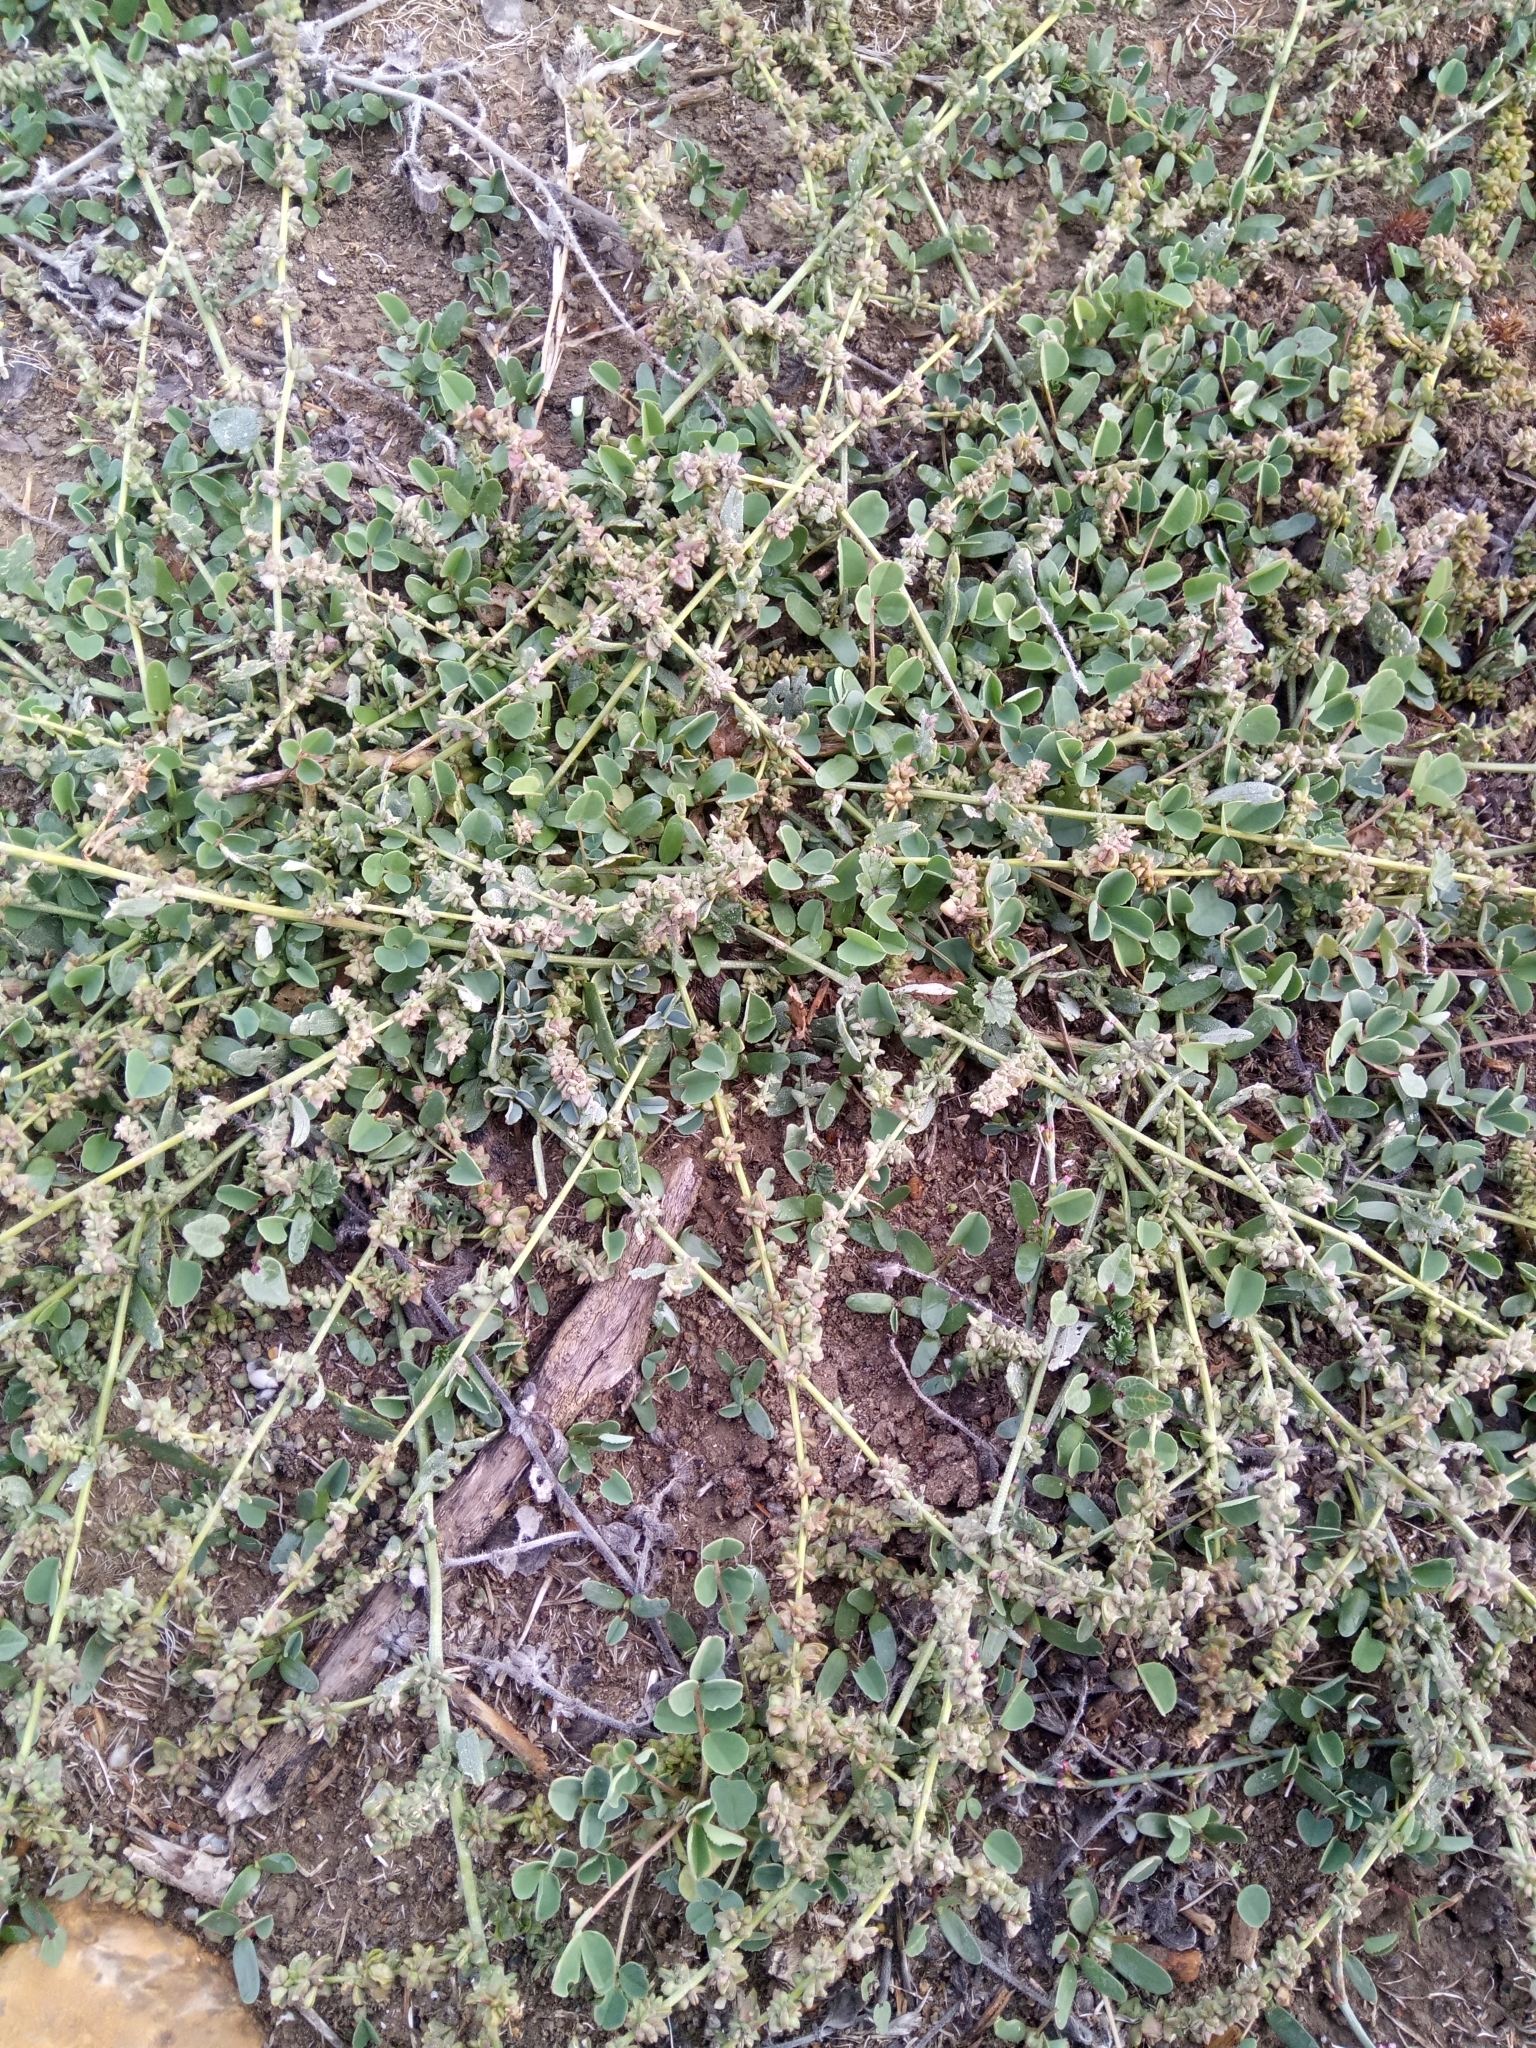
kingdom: Plantae
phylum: Tracheophyta
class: Magnoliopsida
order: Caryophyllales
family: Amaranthaceae
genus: Atriplex
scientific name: Atriplex patula
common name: Common orache
